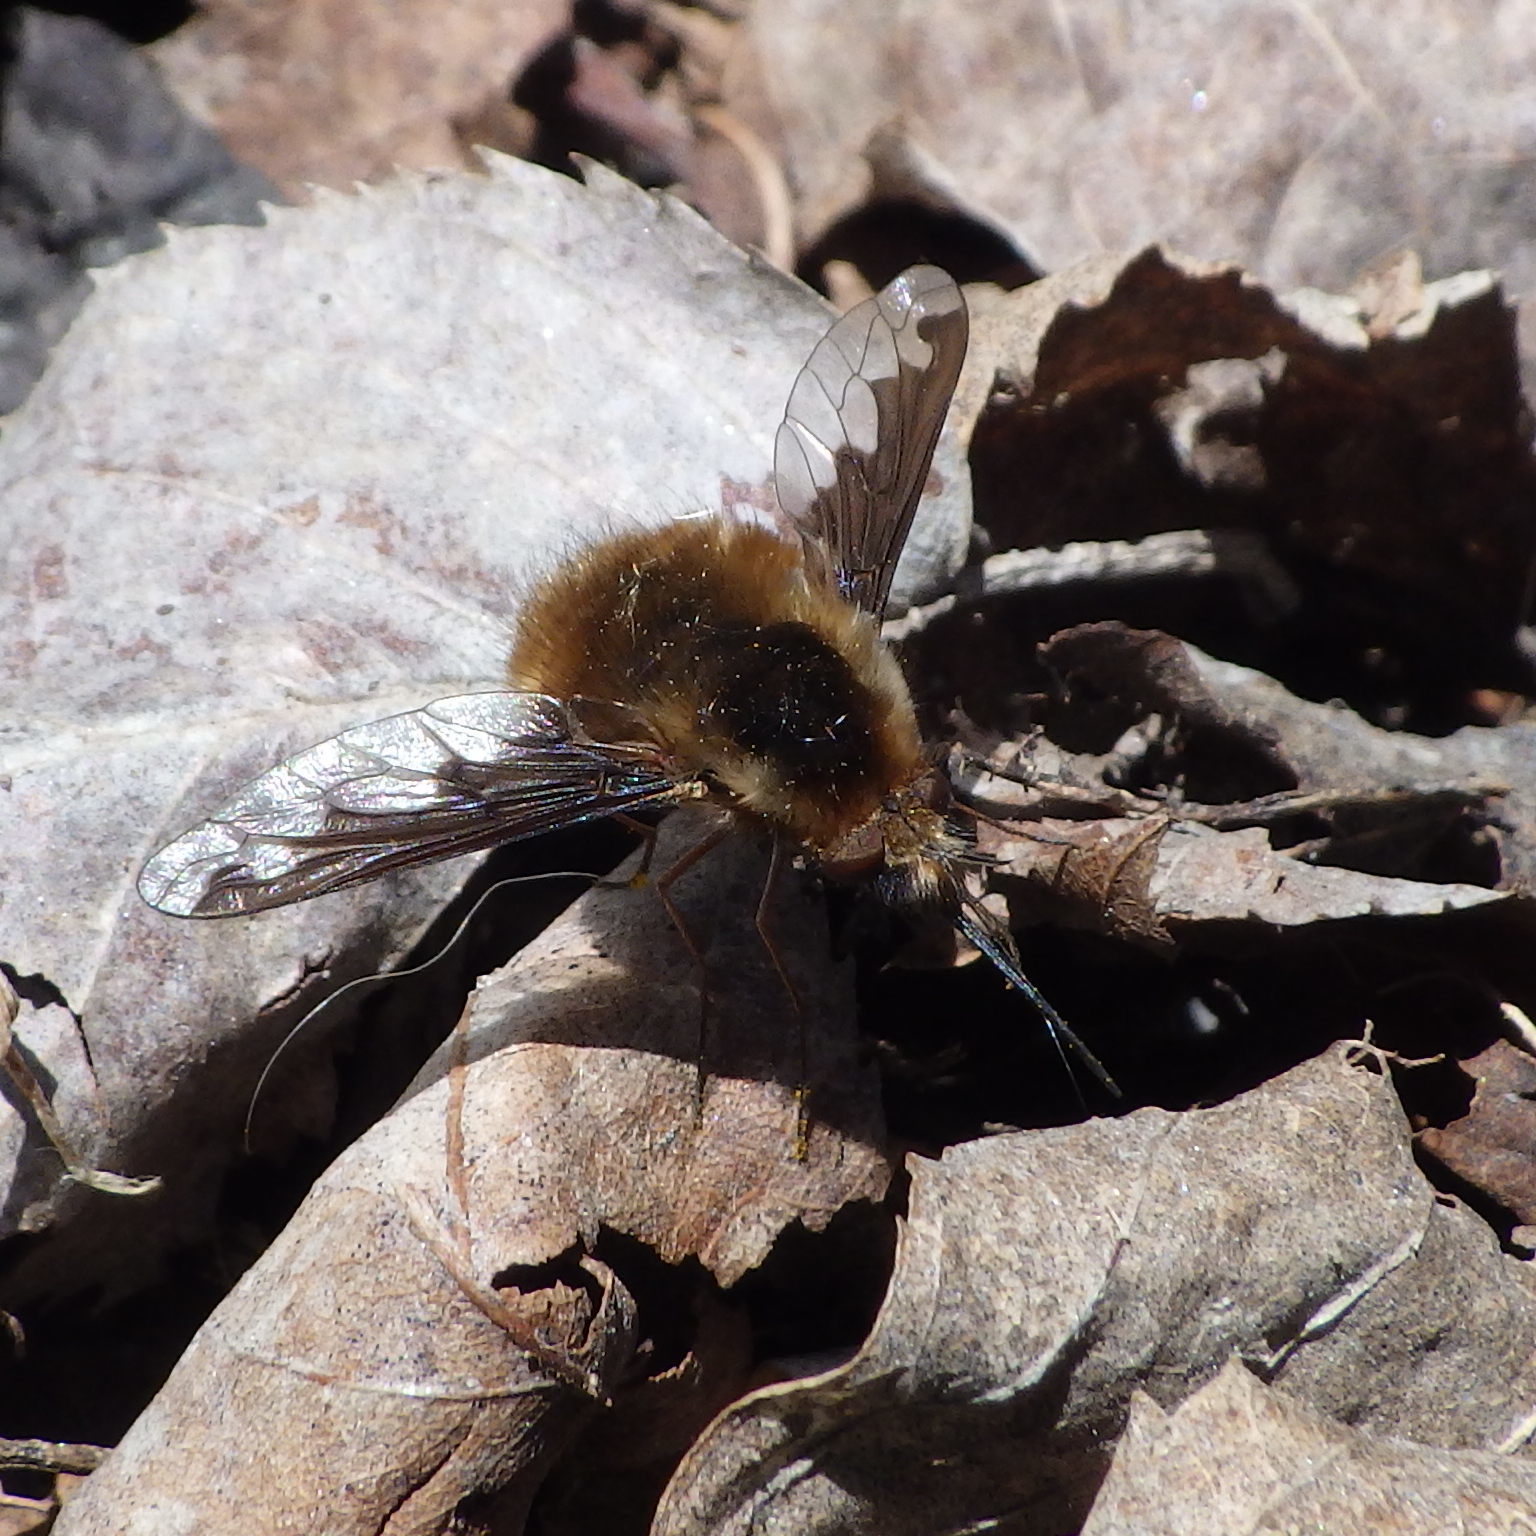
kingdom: Animalia
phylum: Arthropoda
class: Insecta
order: Diptera
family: Bombyliidae
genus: Bombylius
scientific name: Bombylius major
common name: Bee fly
